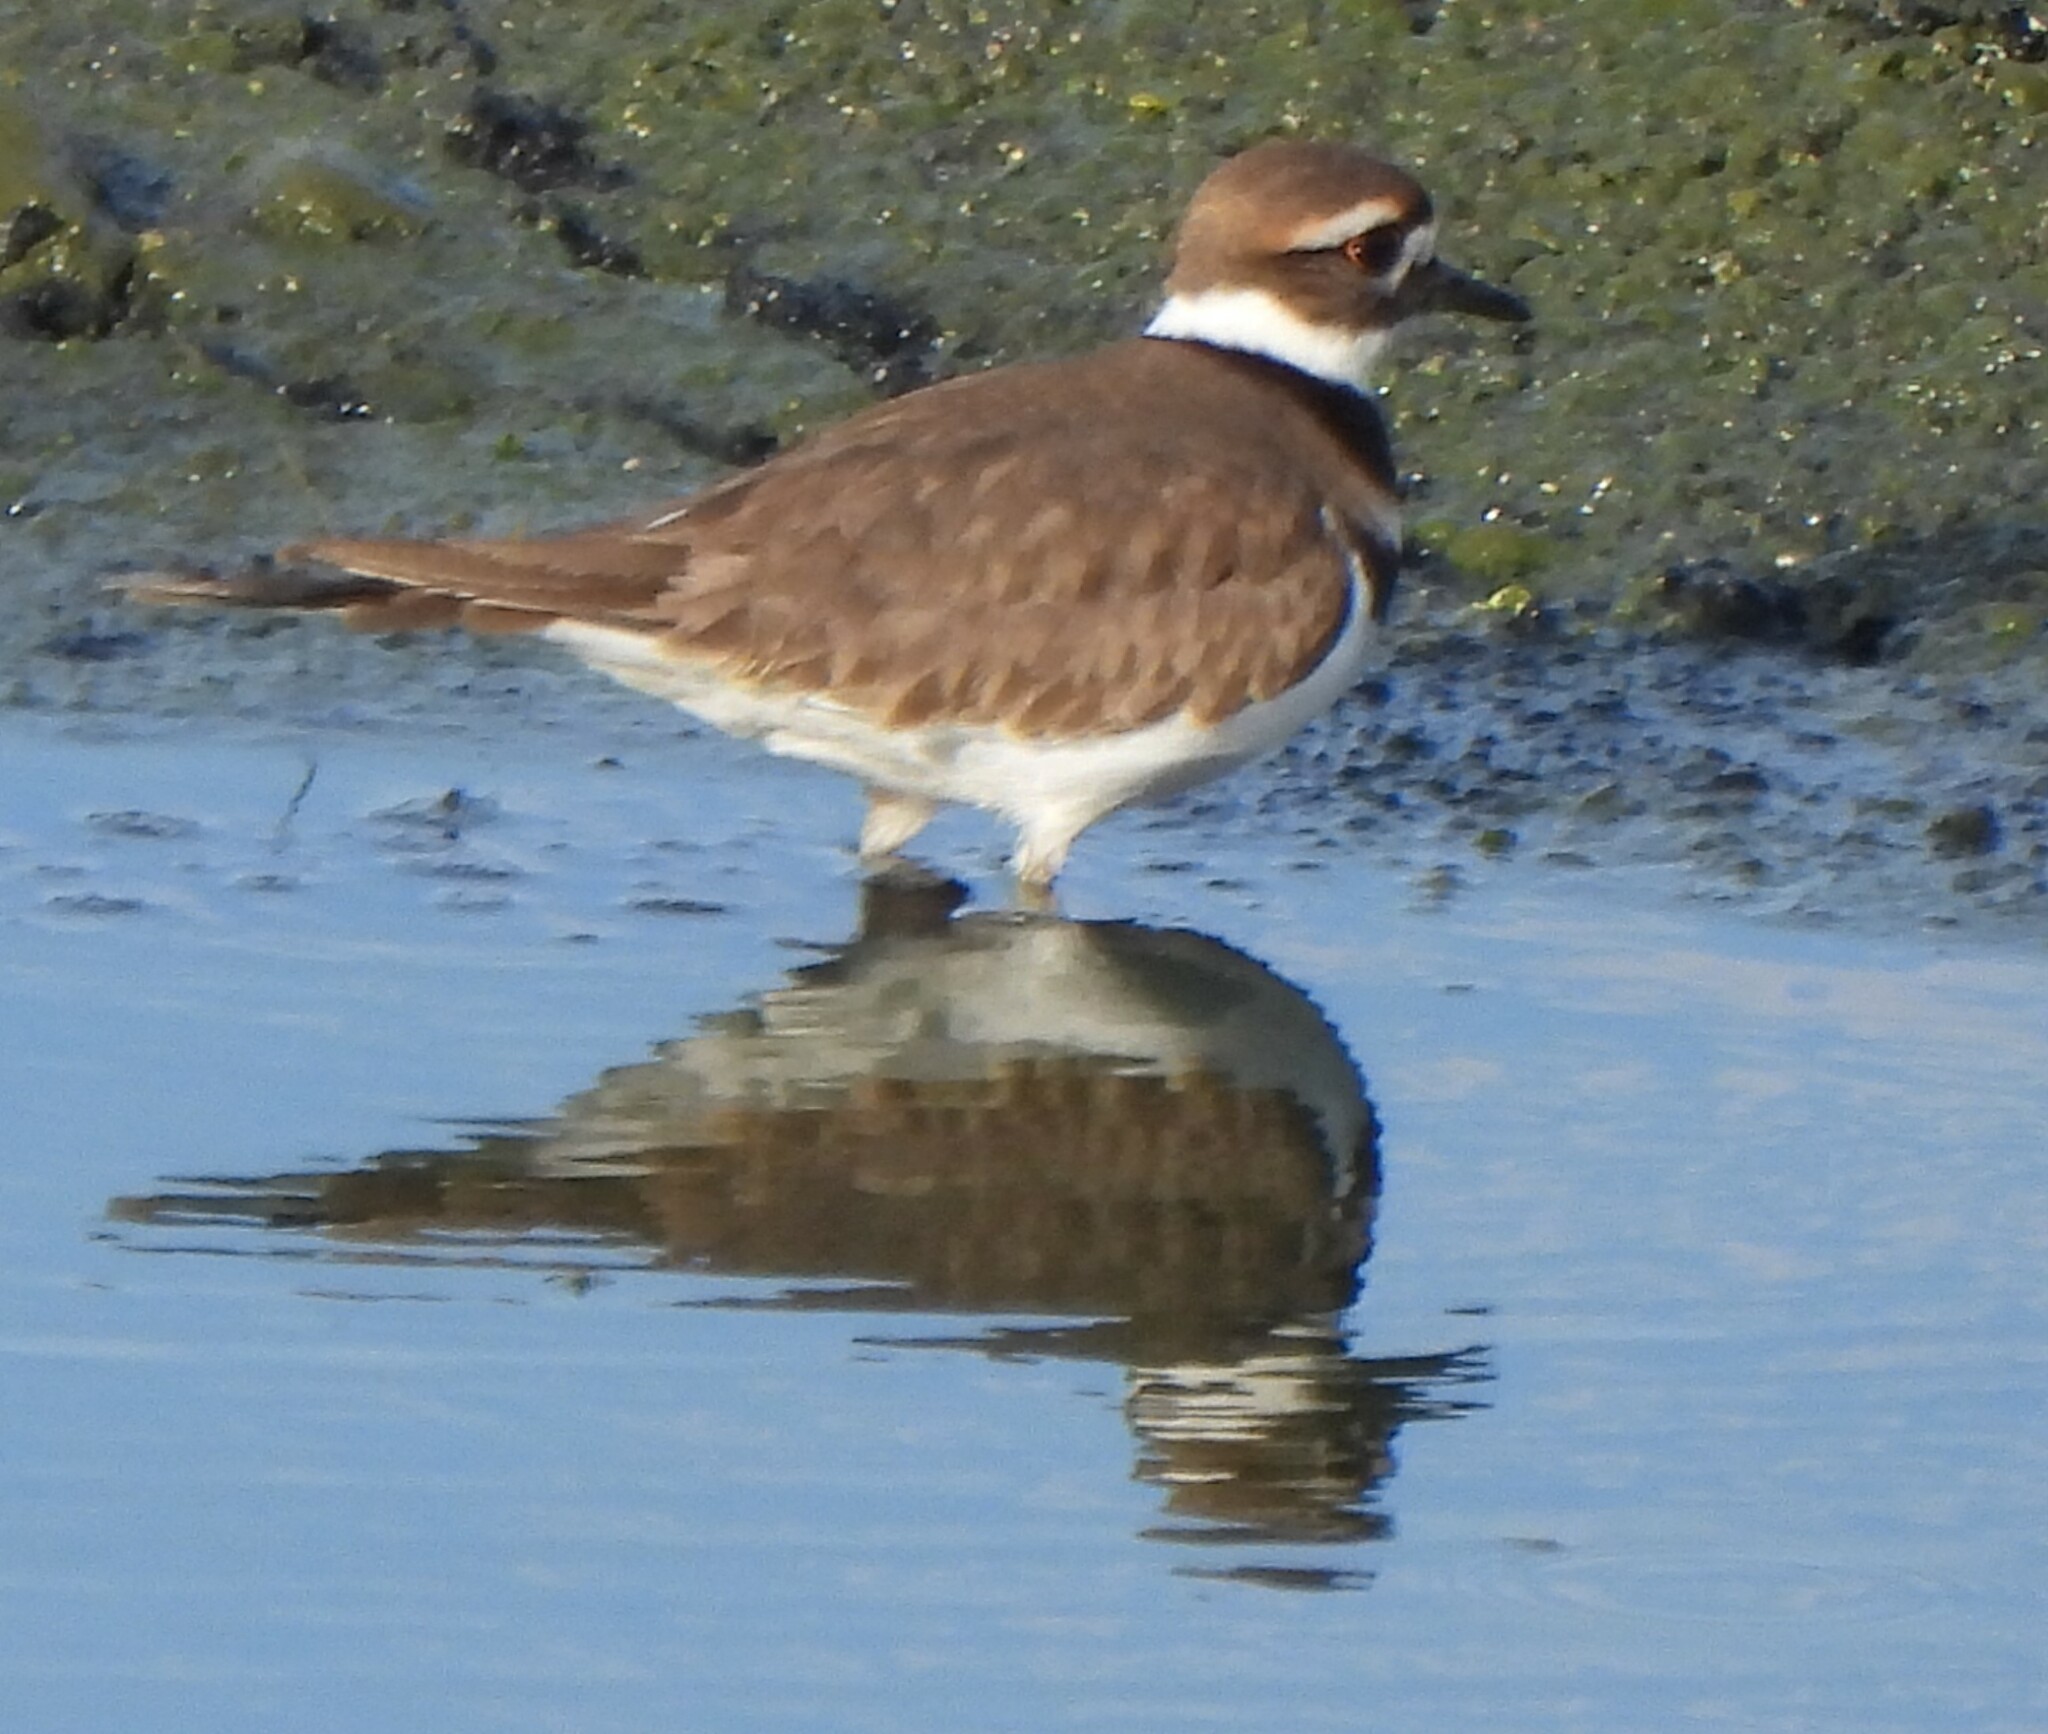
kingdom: Animalia
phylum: Chordata
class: Aves
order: Charadriiformes
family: Charadriidae
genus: Charadrius
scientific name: Charadrius vociferus
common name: Killdeer
